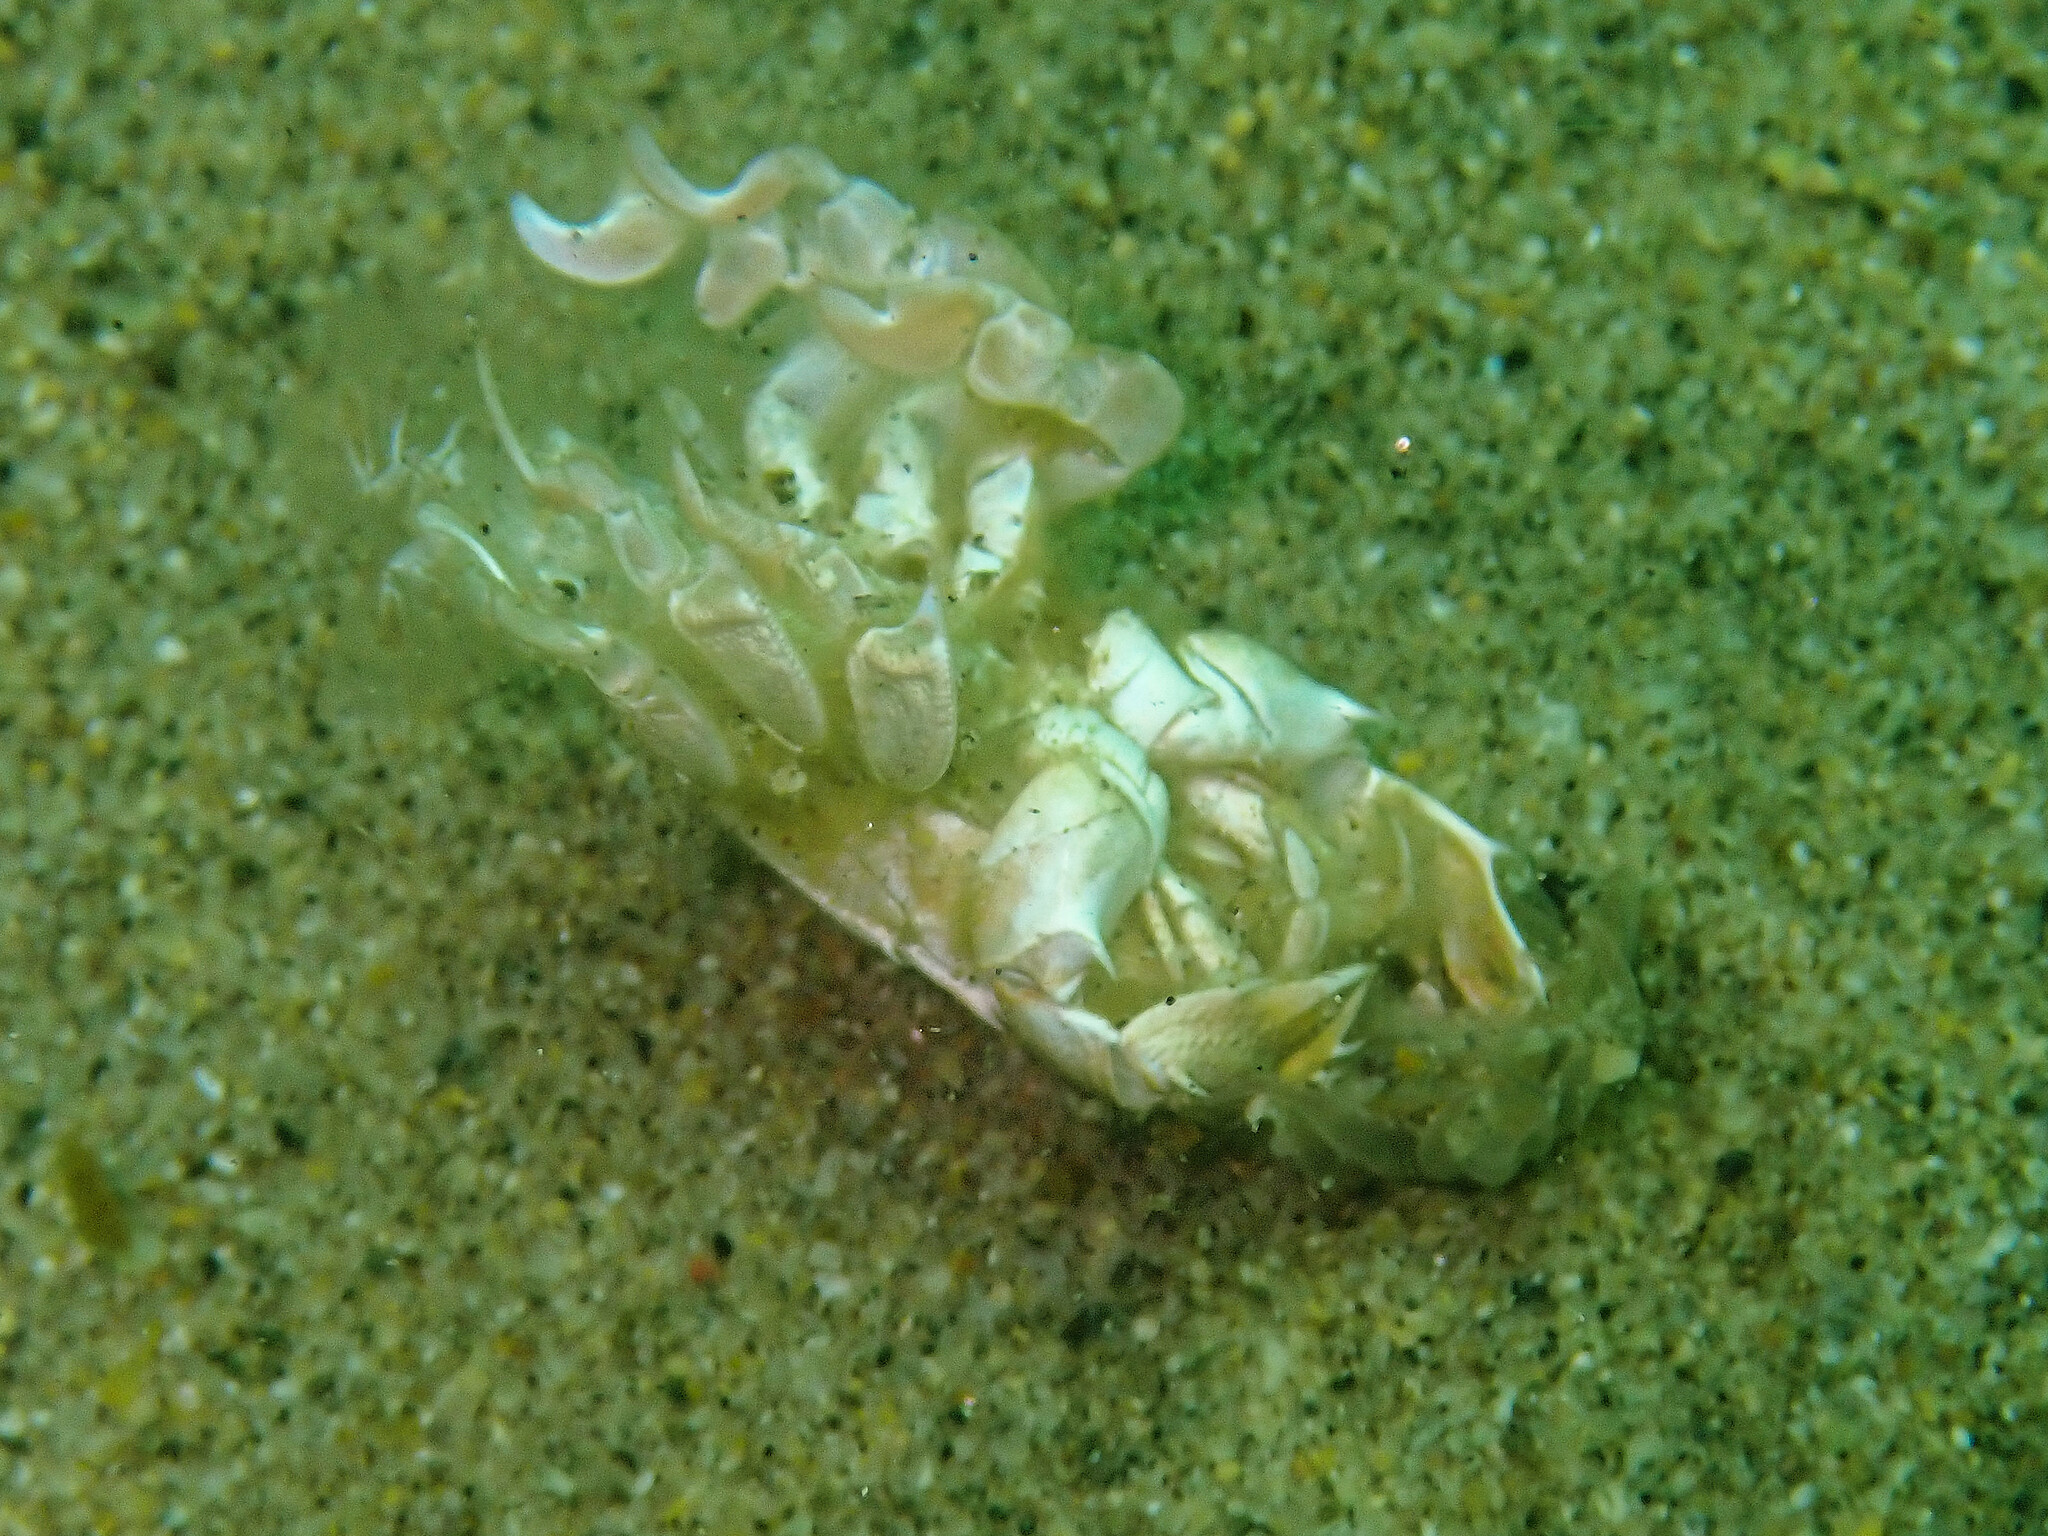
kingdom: Animalia
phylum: Arthropoda
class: Malacostraca
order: Decapoda
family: Blepharipodidae
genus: Blepharipoda
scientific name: Blepharipoda occidentalis
